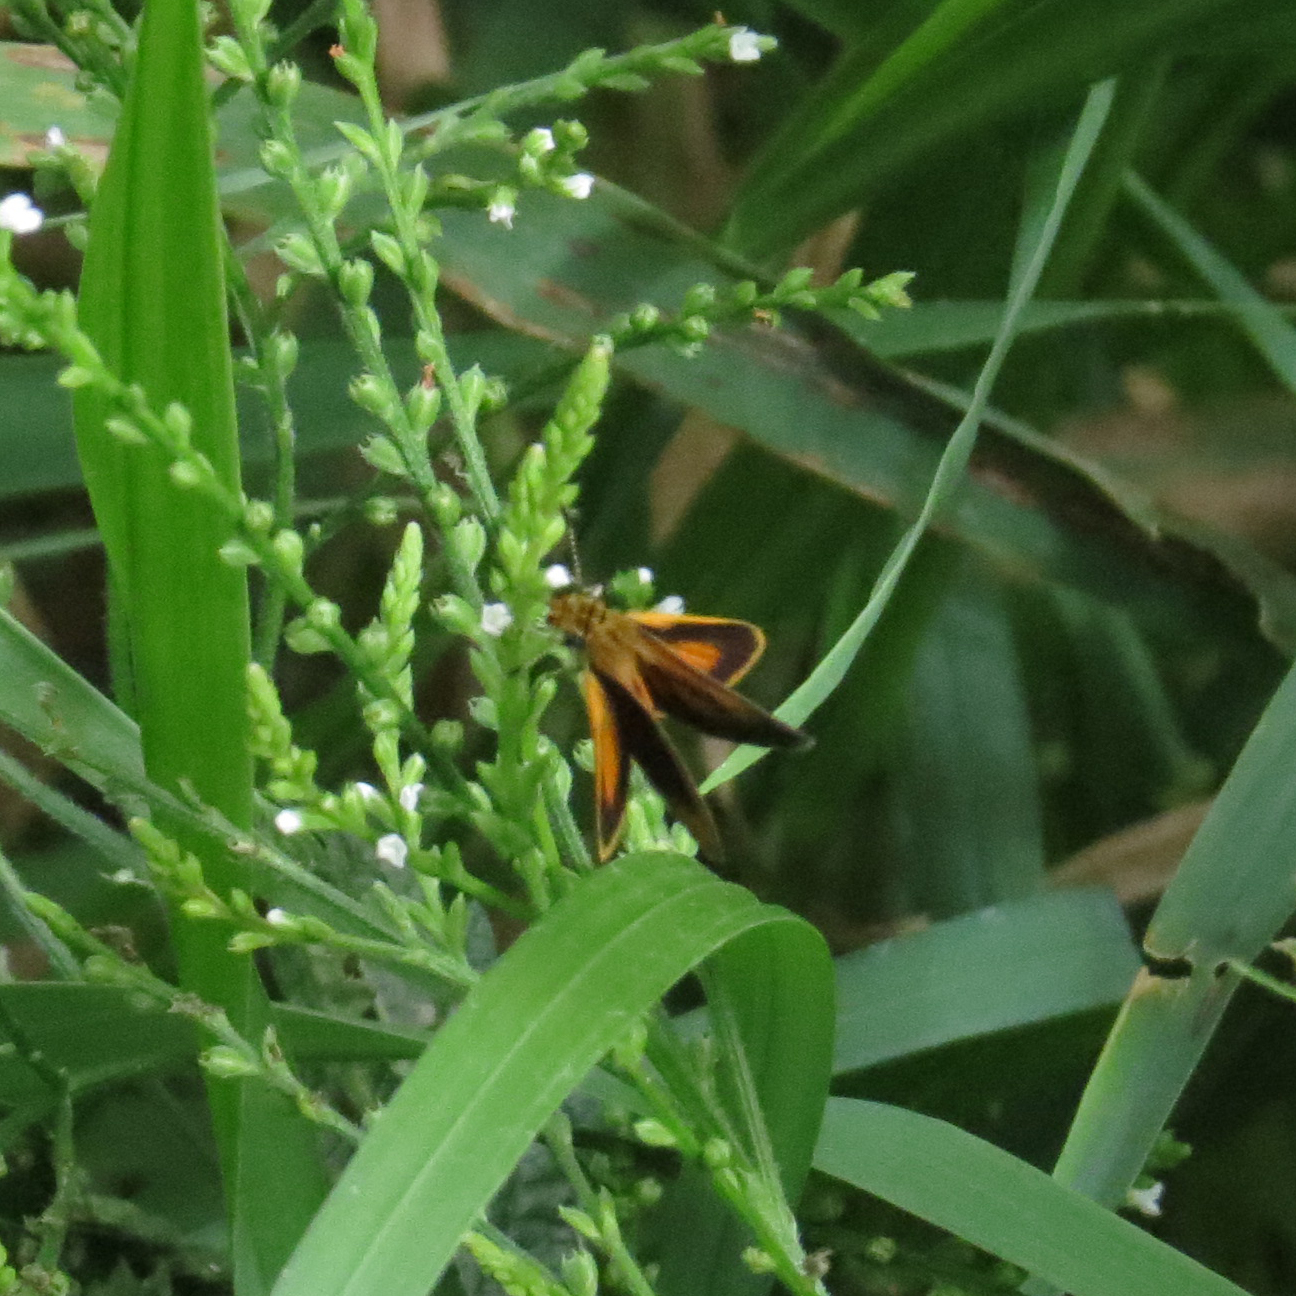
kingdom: Animalia
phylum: Arthropoda
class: Insecta
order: Lepidoptera
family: Hesperiidae
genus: Ancyloxypha
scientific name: Ancyloxypha numitor
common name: Least skipper
